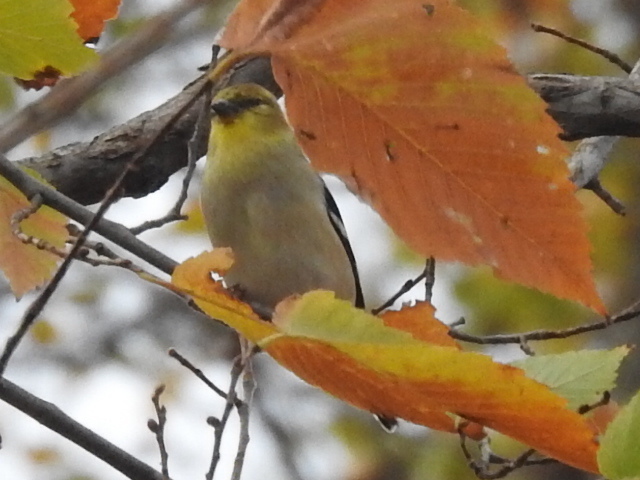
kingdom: Animalia
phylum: Chordata
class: Aves
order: Passeriformes
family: Fringillidae
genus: Spinus
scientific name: Spinus tristis
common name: American goldfinch
